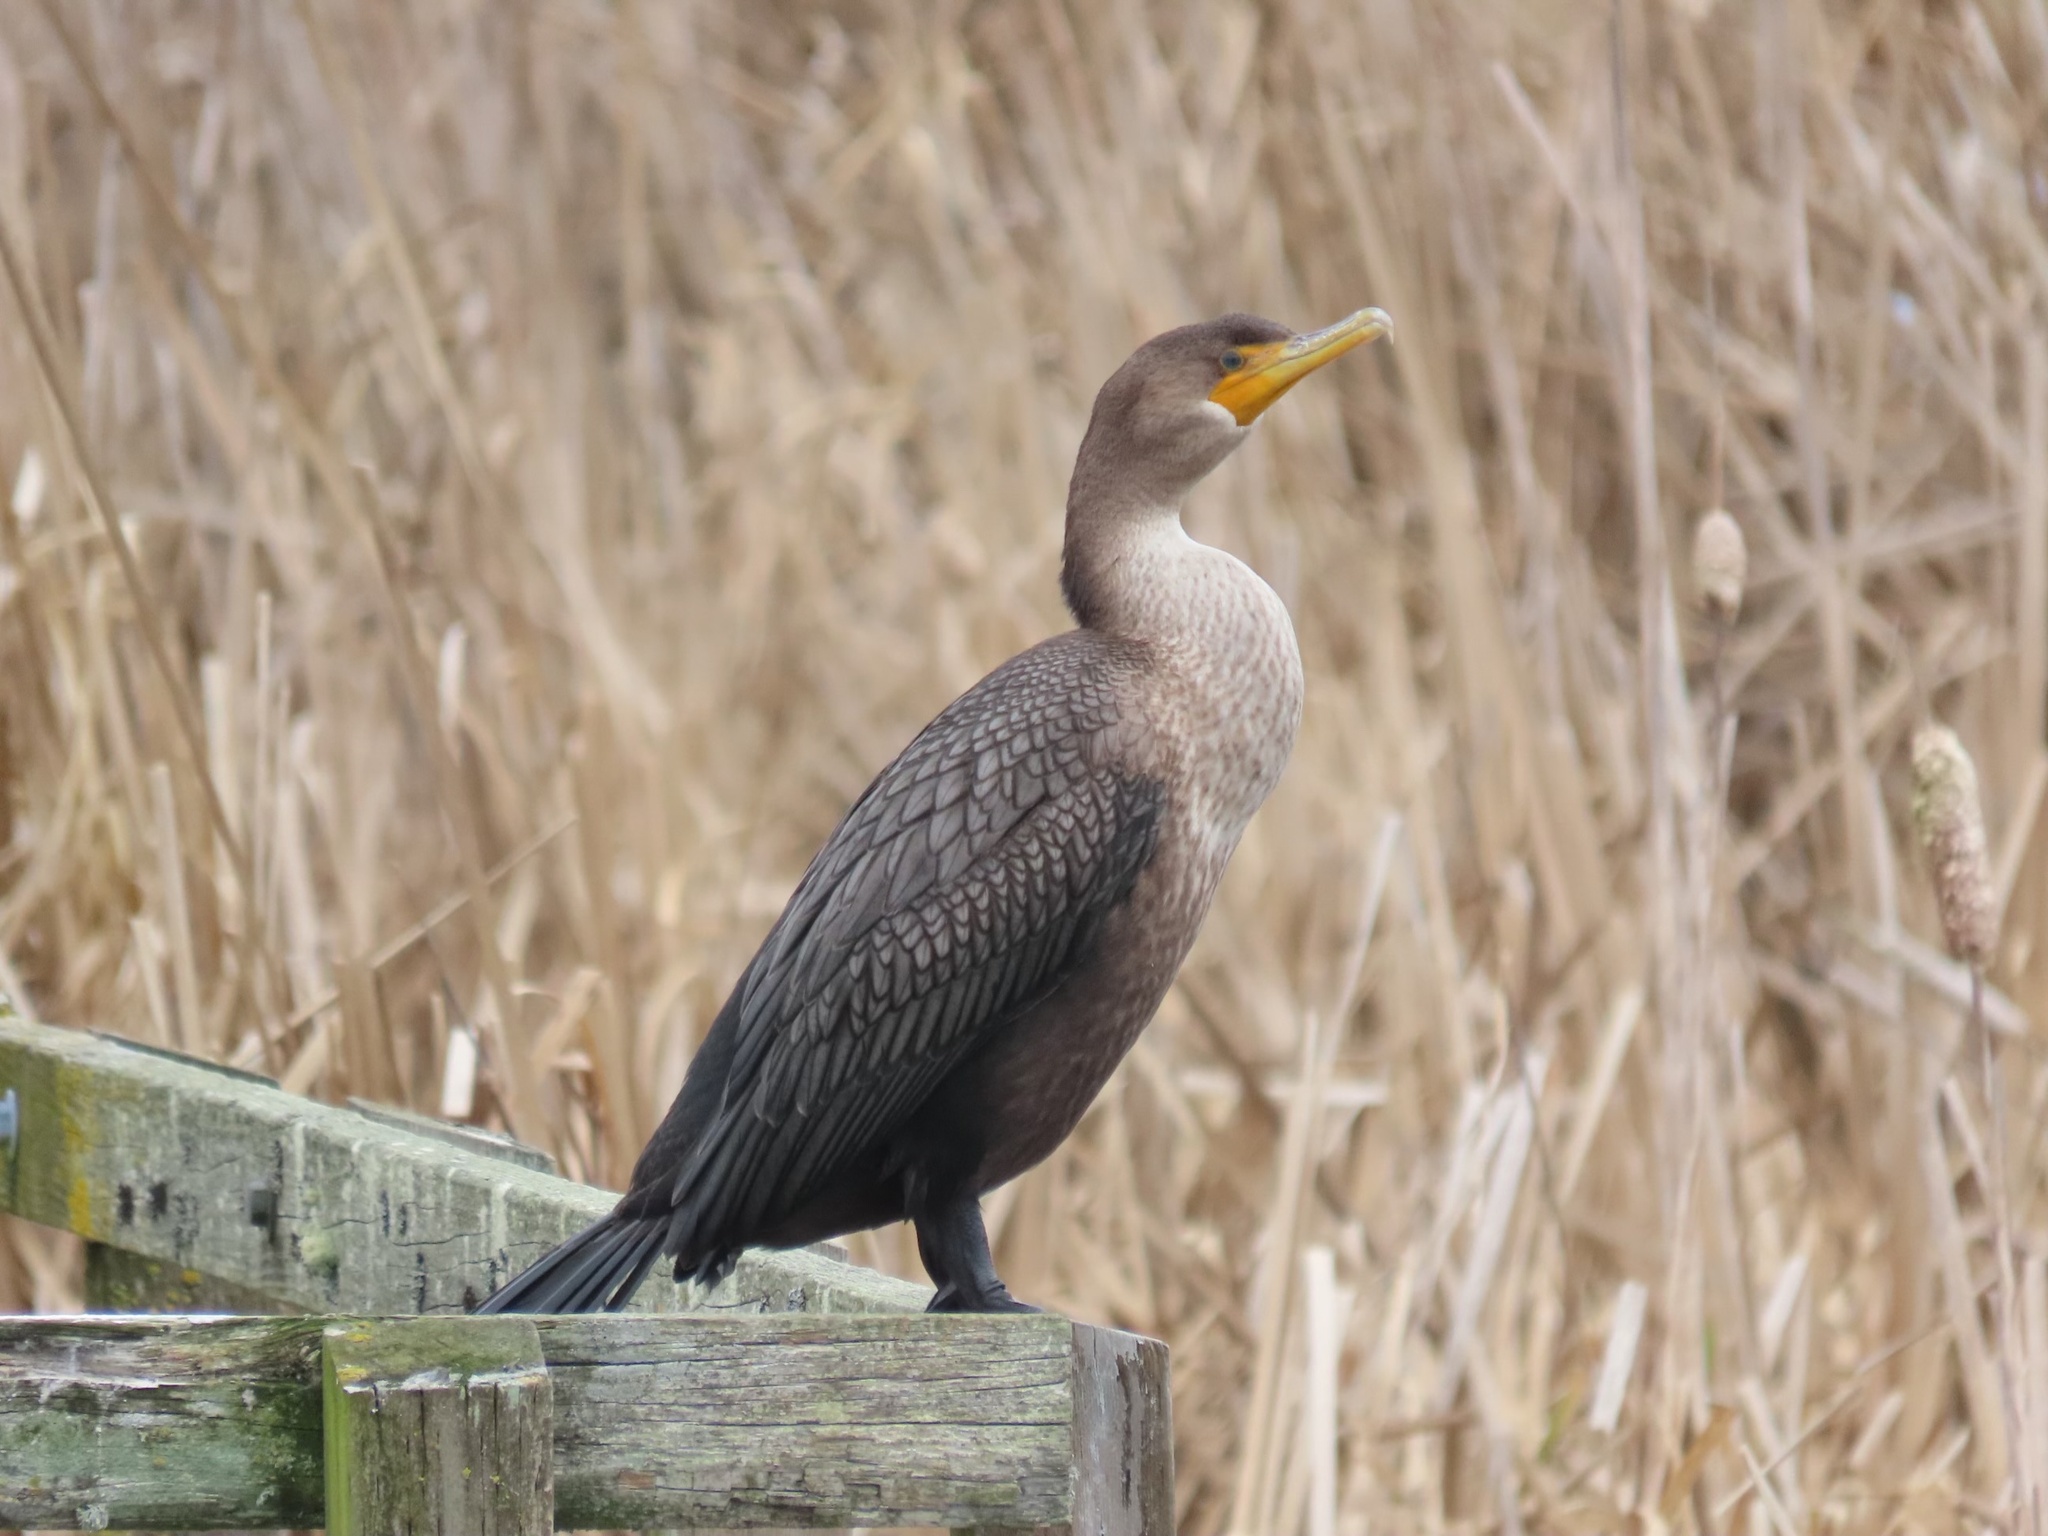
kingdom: Animalia
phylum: Chordata
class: Aves
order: Suliformes
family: Phalacrocoracidae
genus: Phalacrocorax
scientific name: Phalacrocorax auritus
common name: Double-crested cormorant
